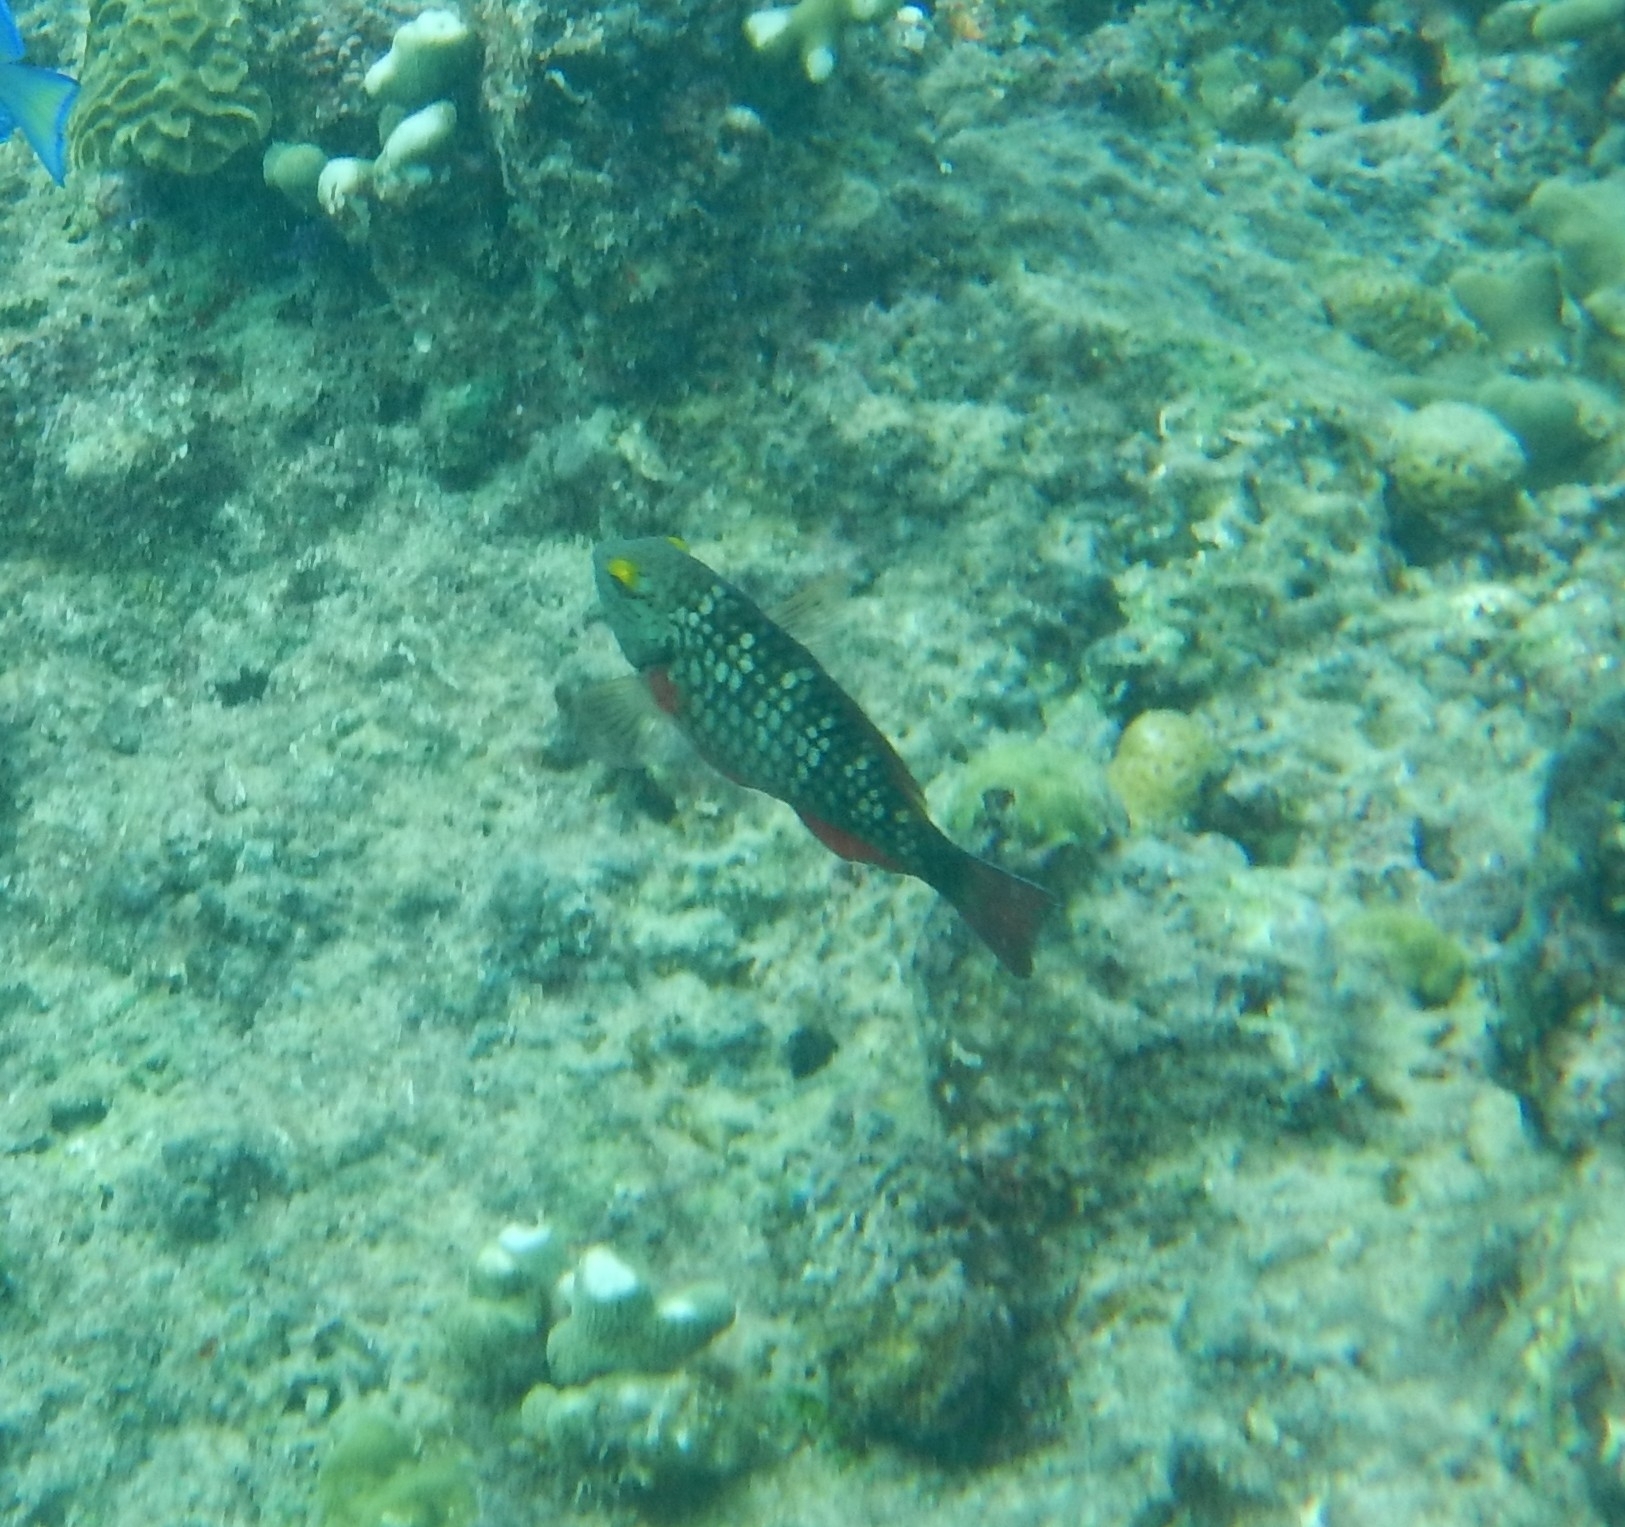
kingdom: Animalia
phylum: Chordata
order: Perciformes
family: Scaridae
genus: Sparisoma
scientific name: Sparisoma viride
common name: Stoplight parrotfish
